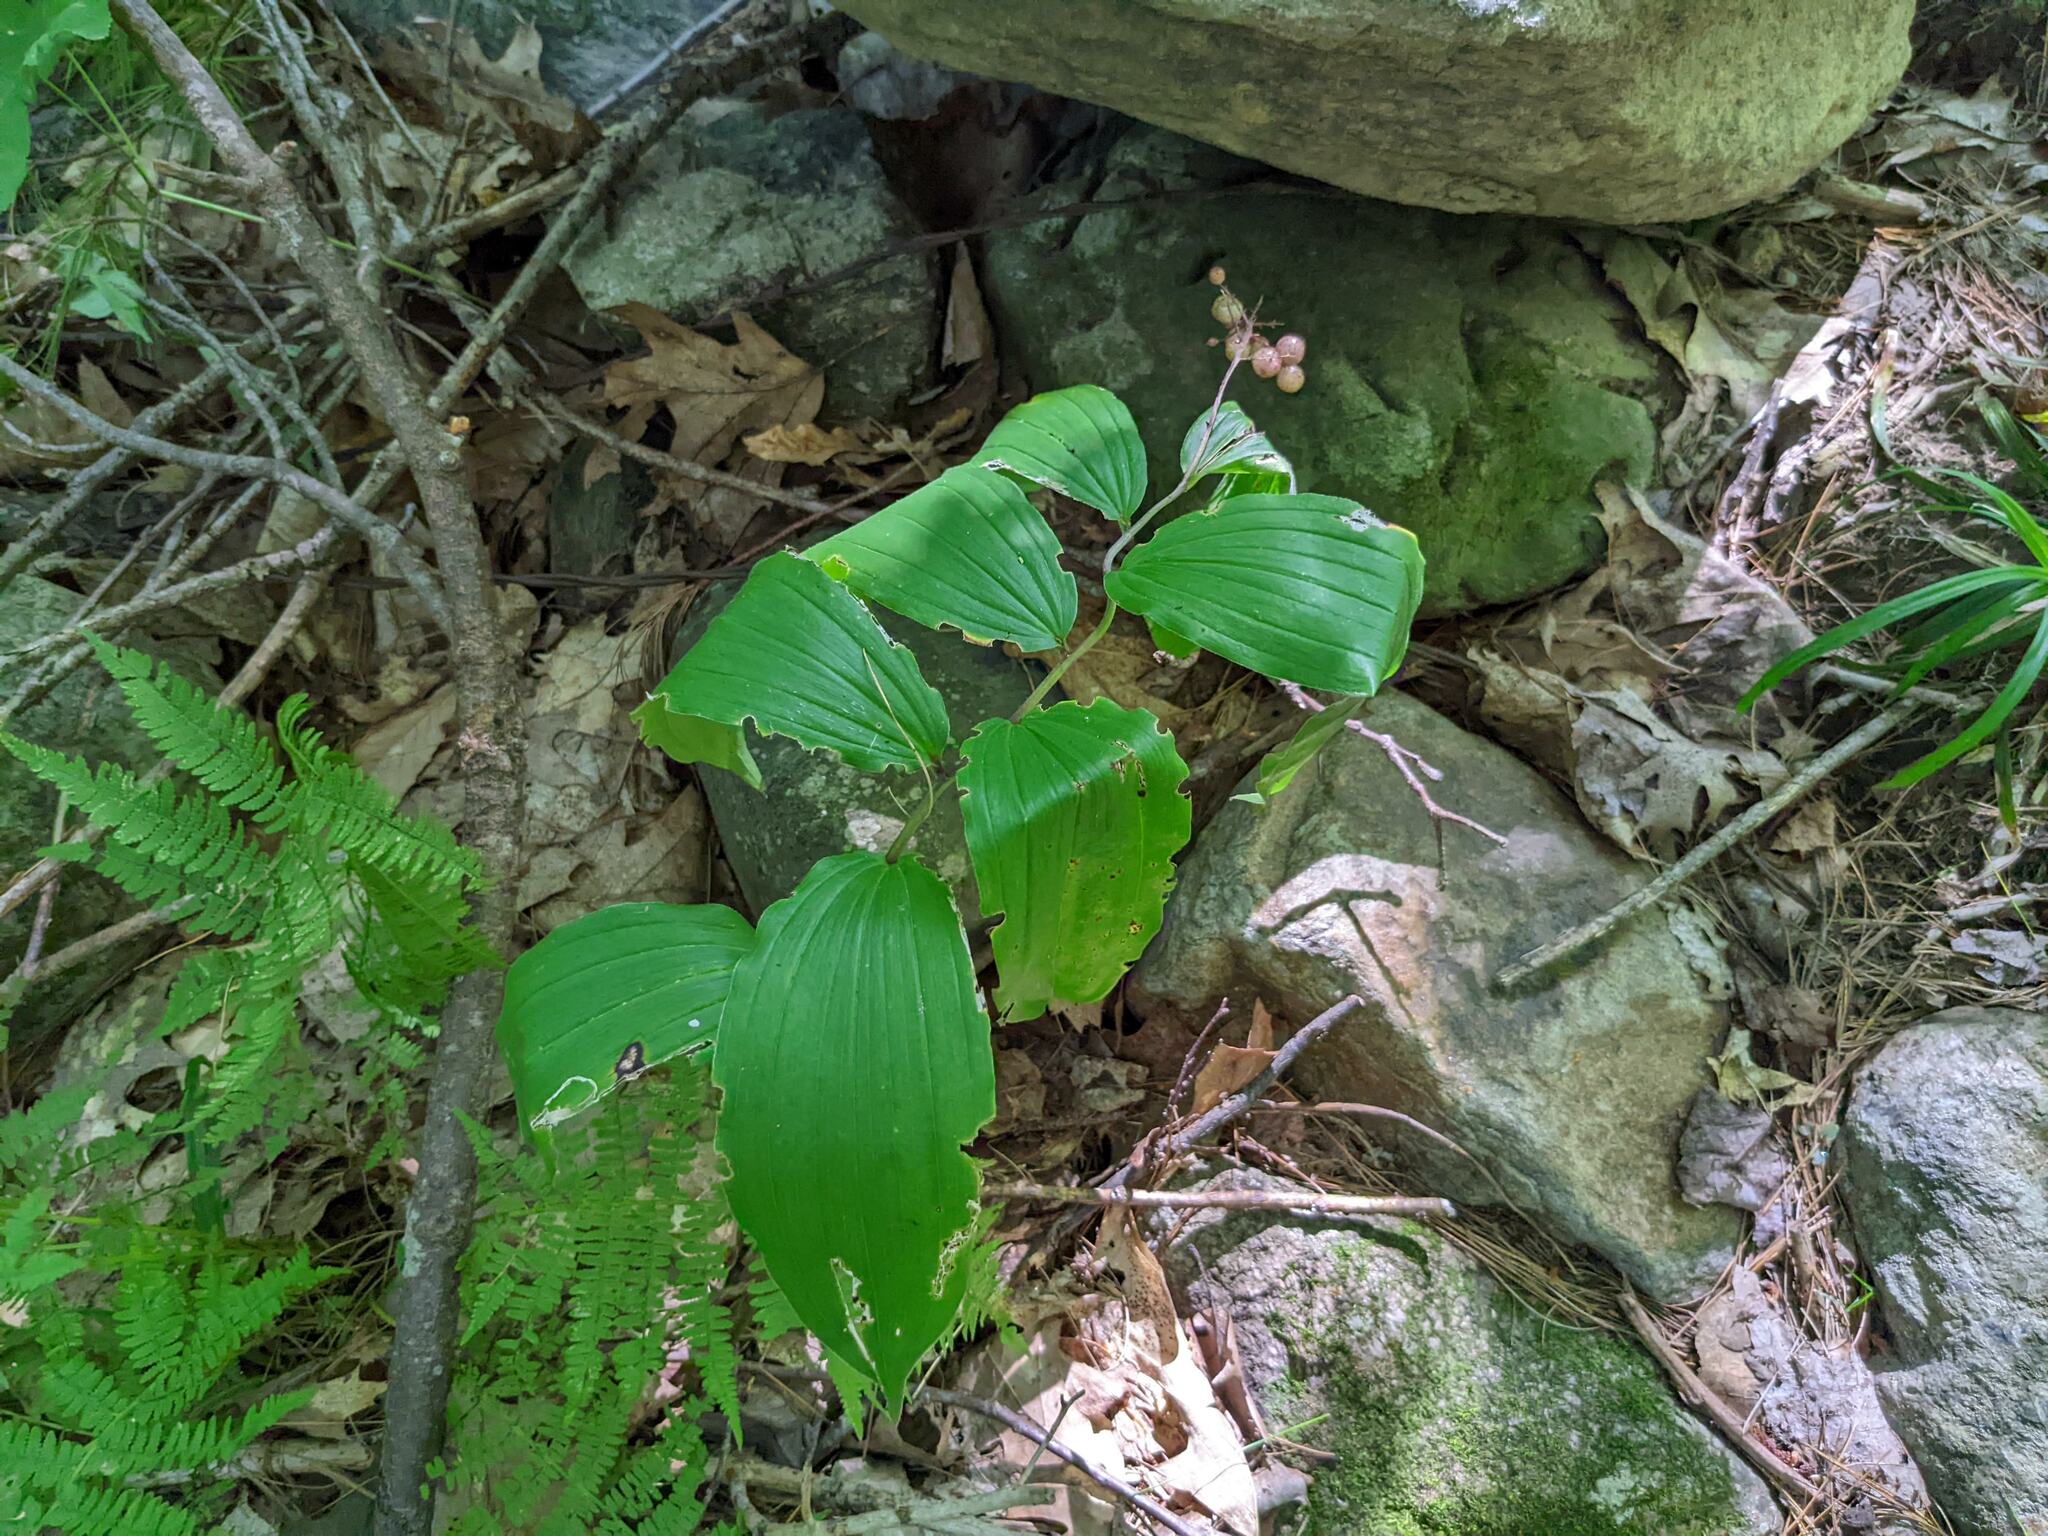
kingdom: Plantae
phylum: Tracheophyta
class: Liliopsida
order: Asparagales
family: Asparagaceae
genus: Maianthemum
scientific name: Maianthemum racemosum
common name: False spikenard
